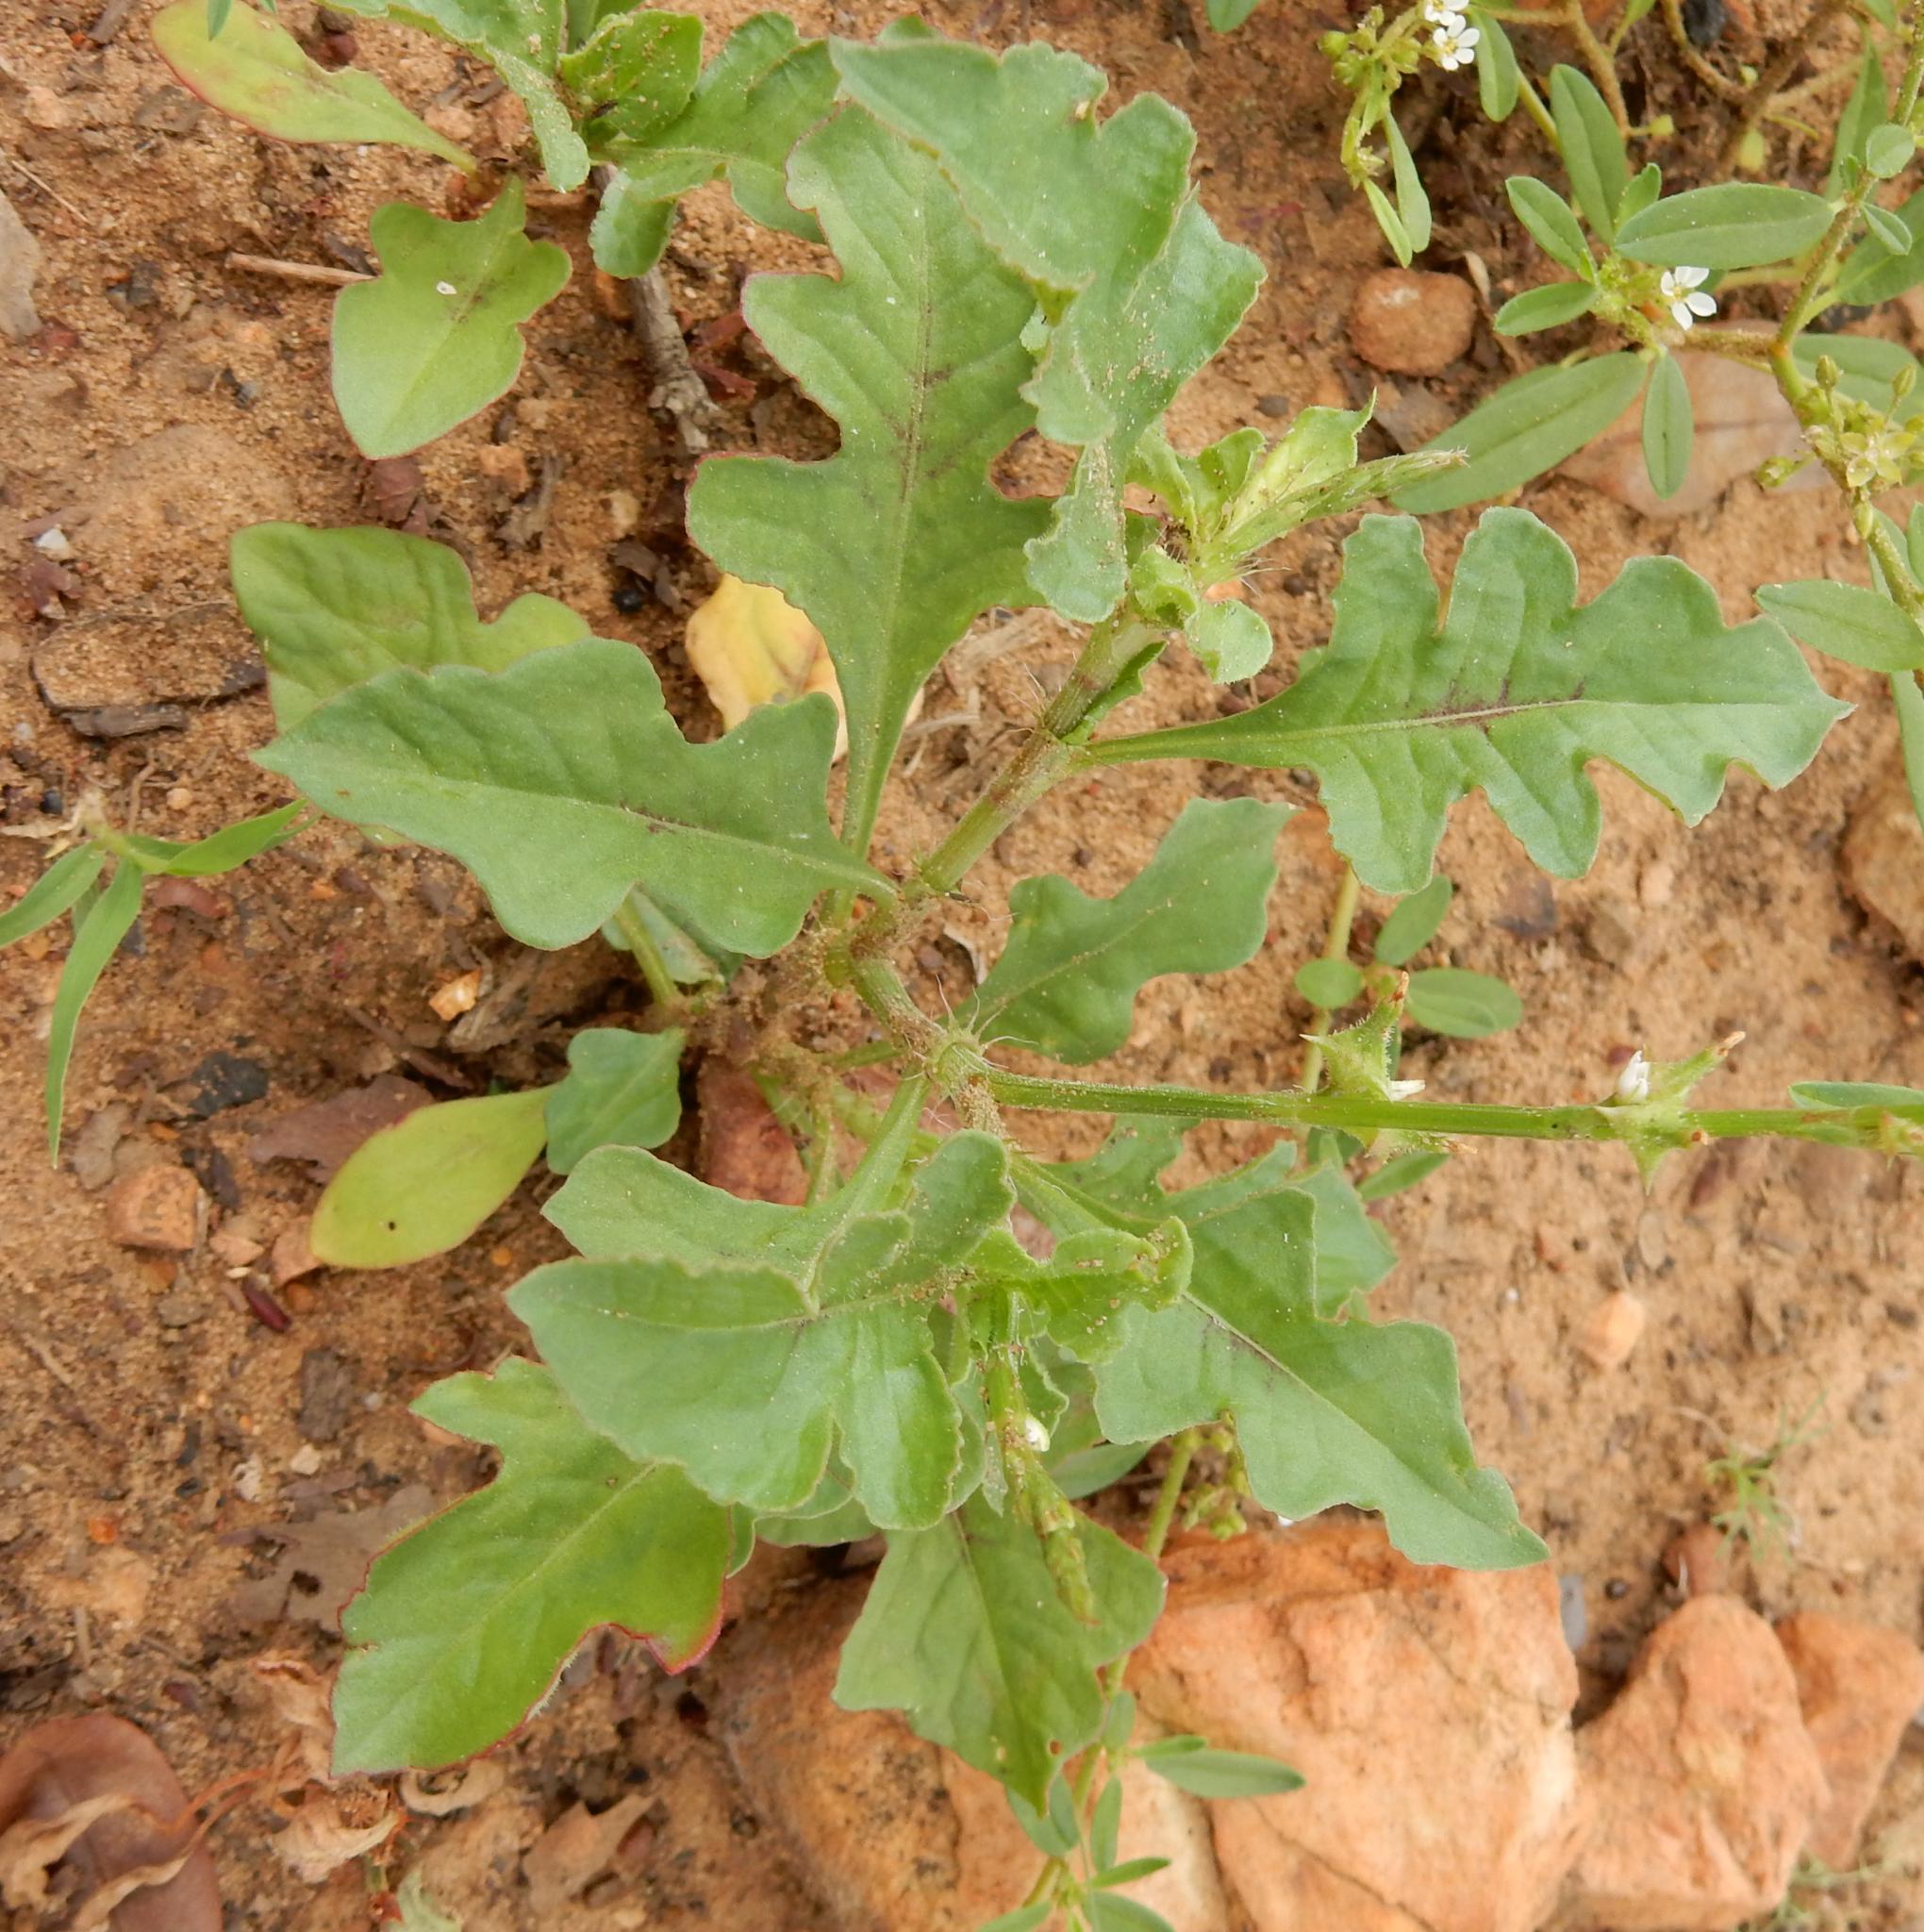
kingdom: Plantae
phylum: Tracheophyta
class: Magnoliopsida
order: Caryophyllales
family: Polygonaceae
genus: Oxygonum
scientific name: Oxygonum sinuatum
